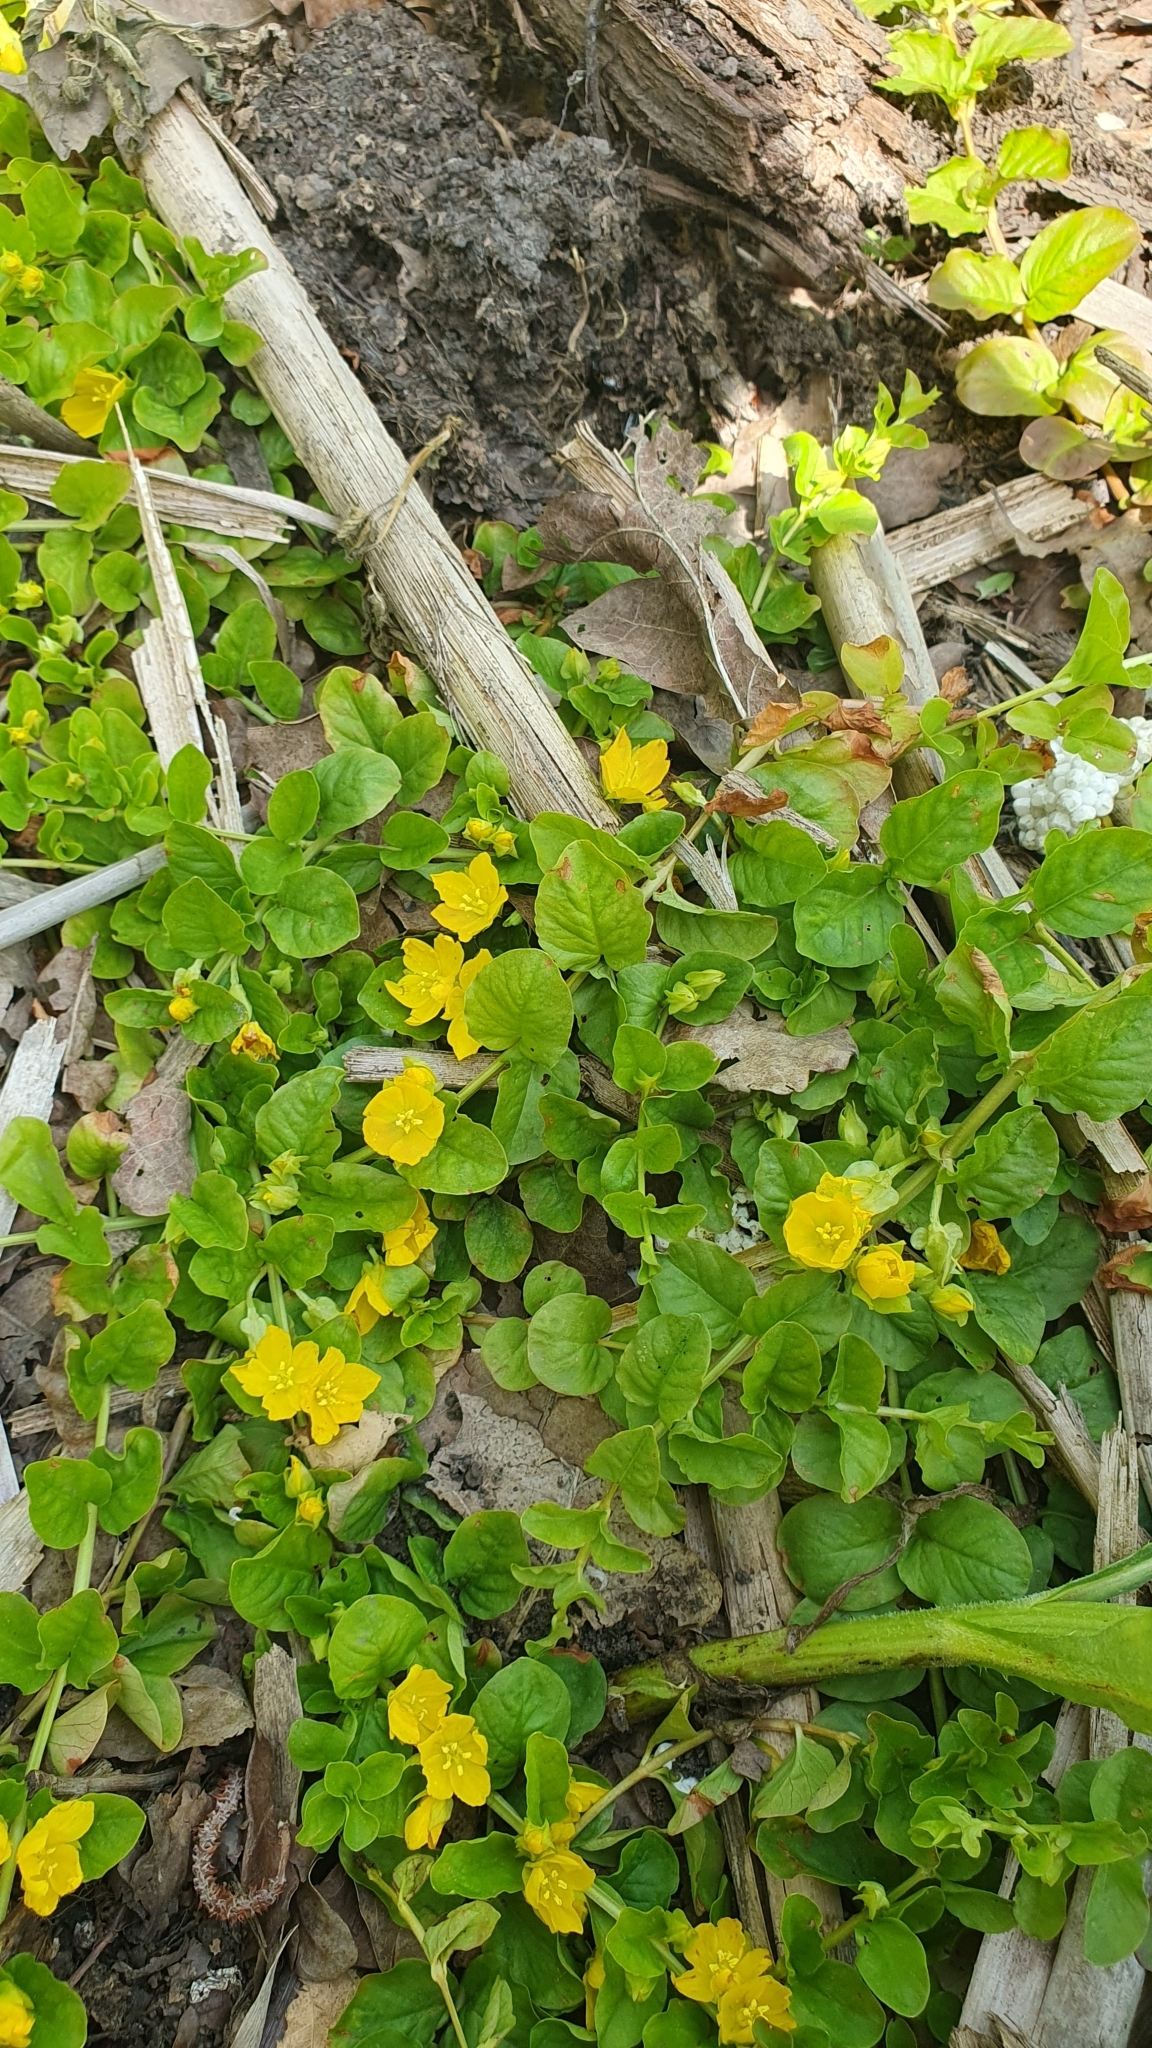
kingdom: Plantae
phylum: Tracheophyta
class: Magnoliopsida
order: Ericales
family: Primulaceae
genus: Lysimachia
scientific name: Lysimachia nummularia
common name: Moneywort
